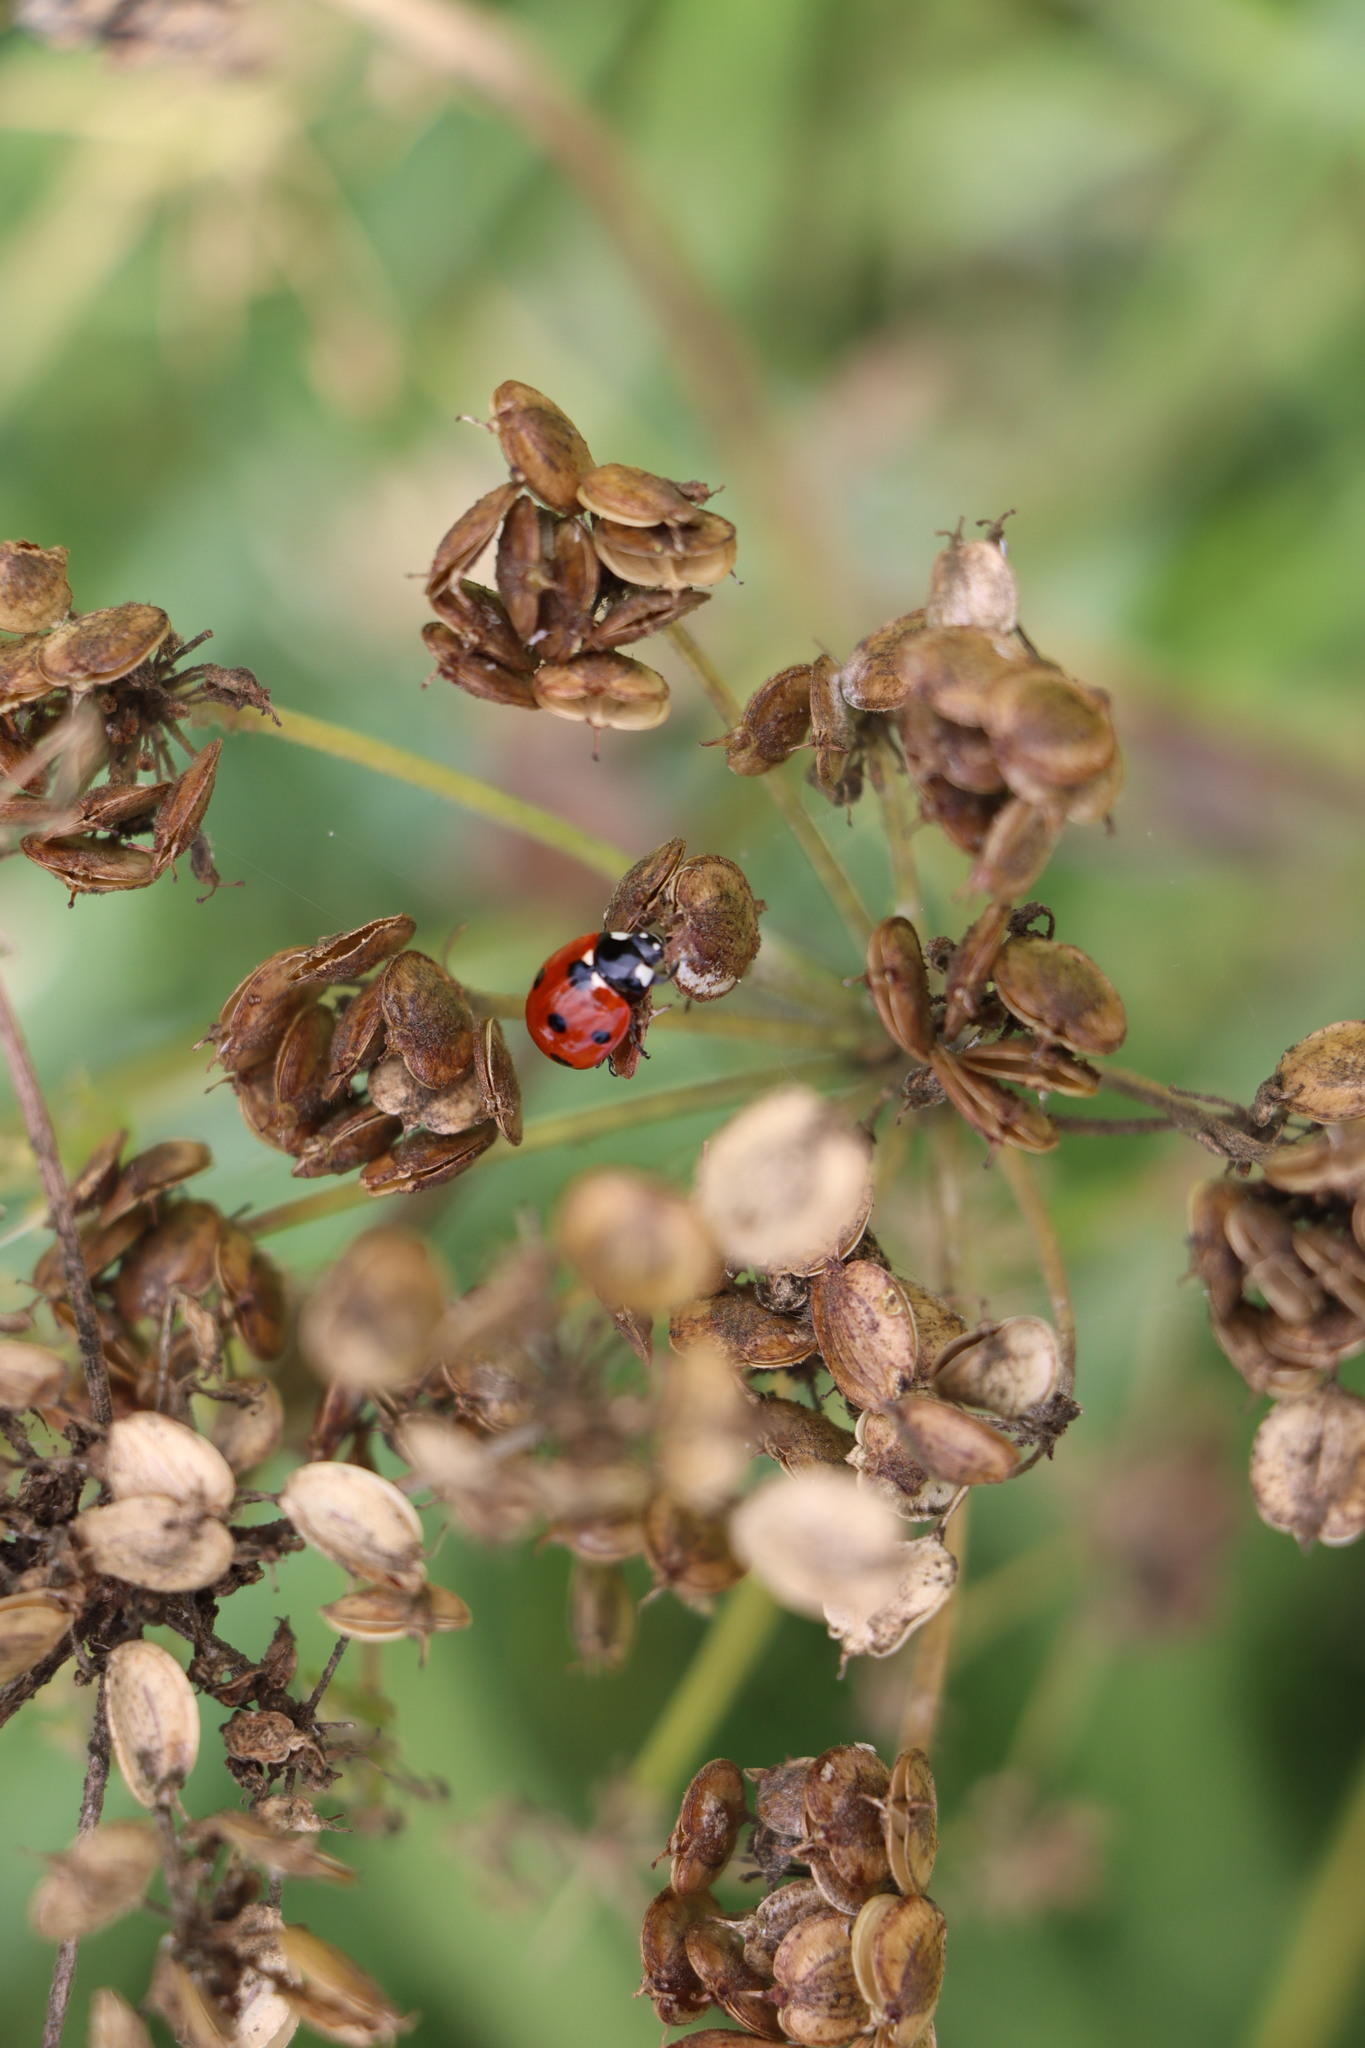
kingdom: Animalia
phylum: Arthropoda
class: Insecta
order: Coleoptera
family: Coccinellidae
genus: Coccinella
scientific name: Coccinella septempunctata
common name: Sevenspotted lady beetle
